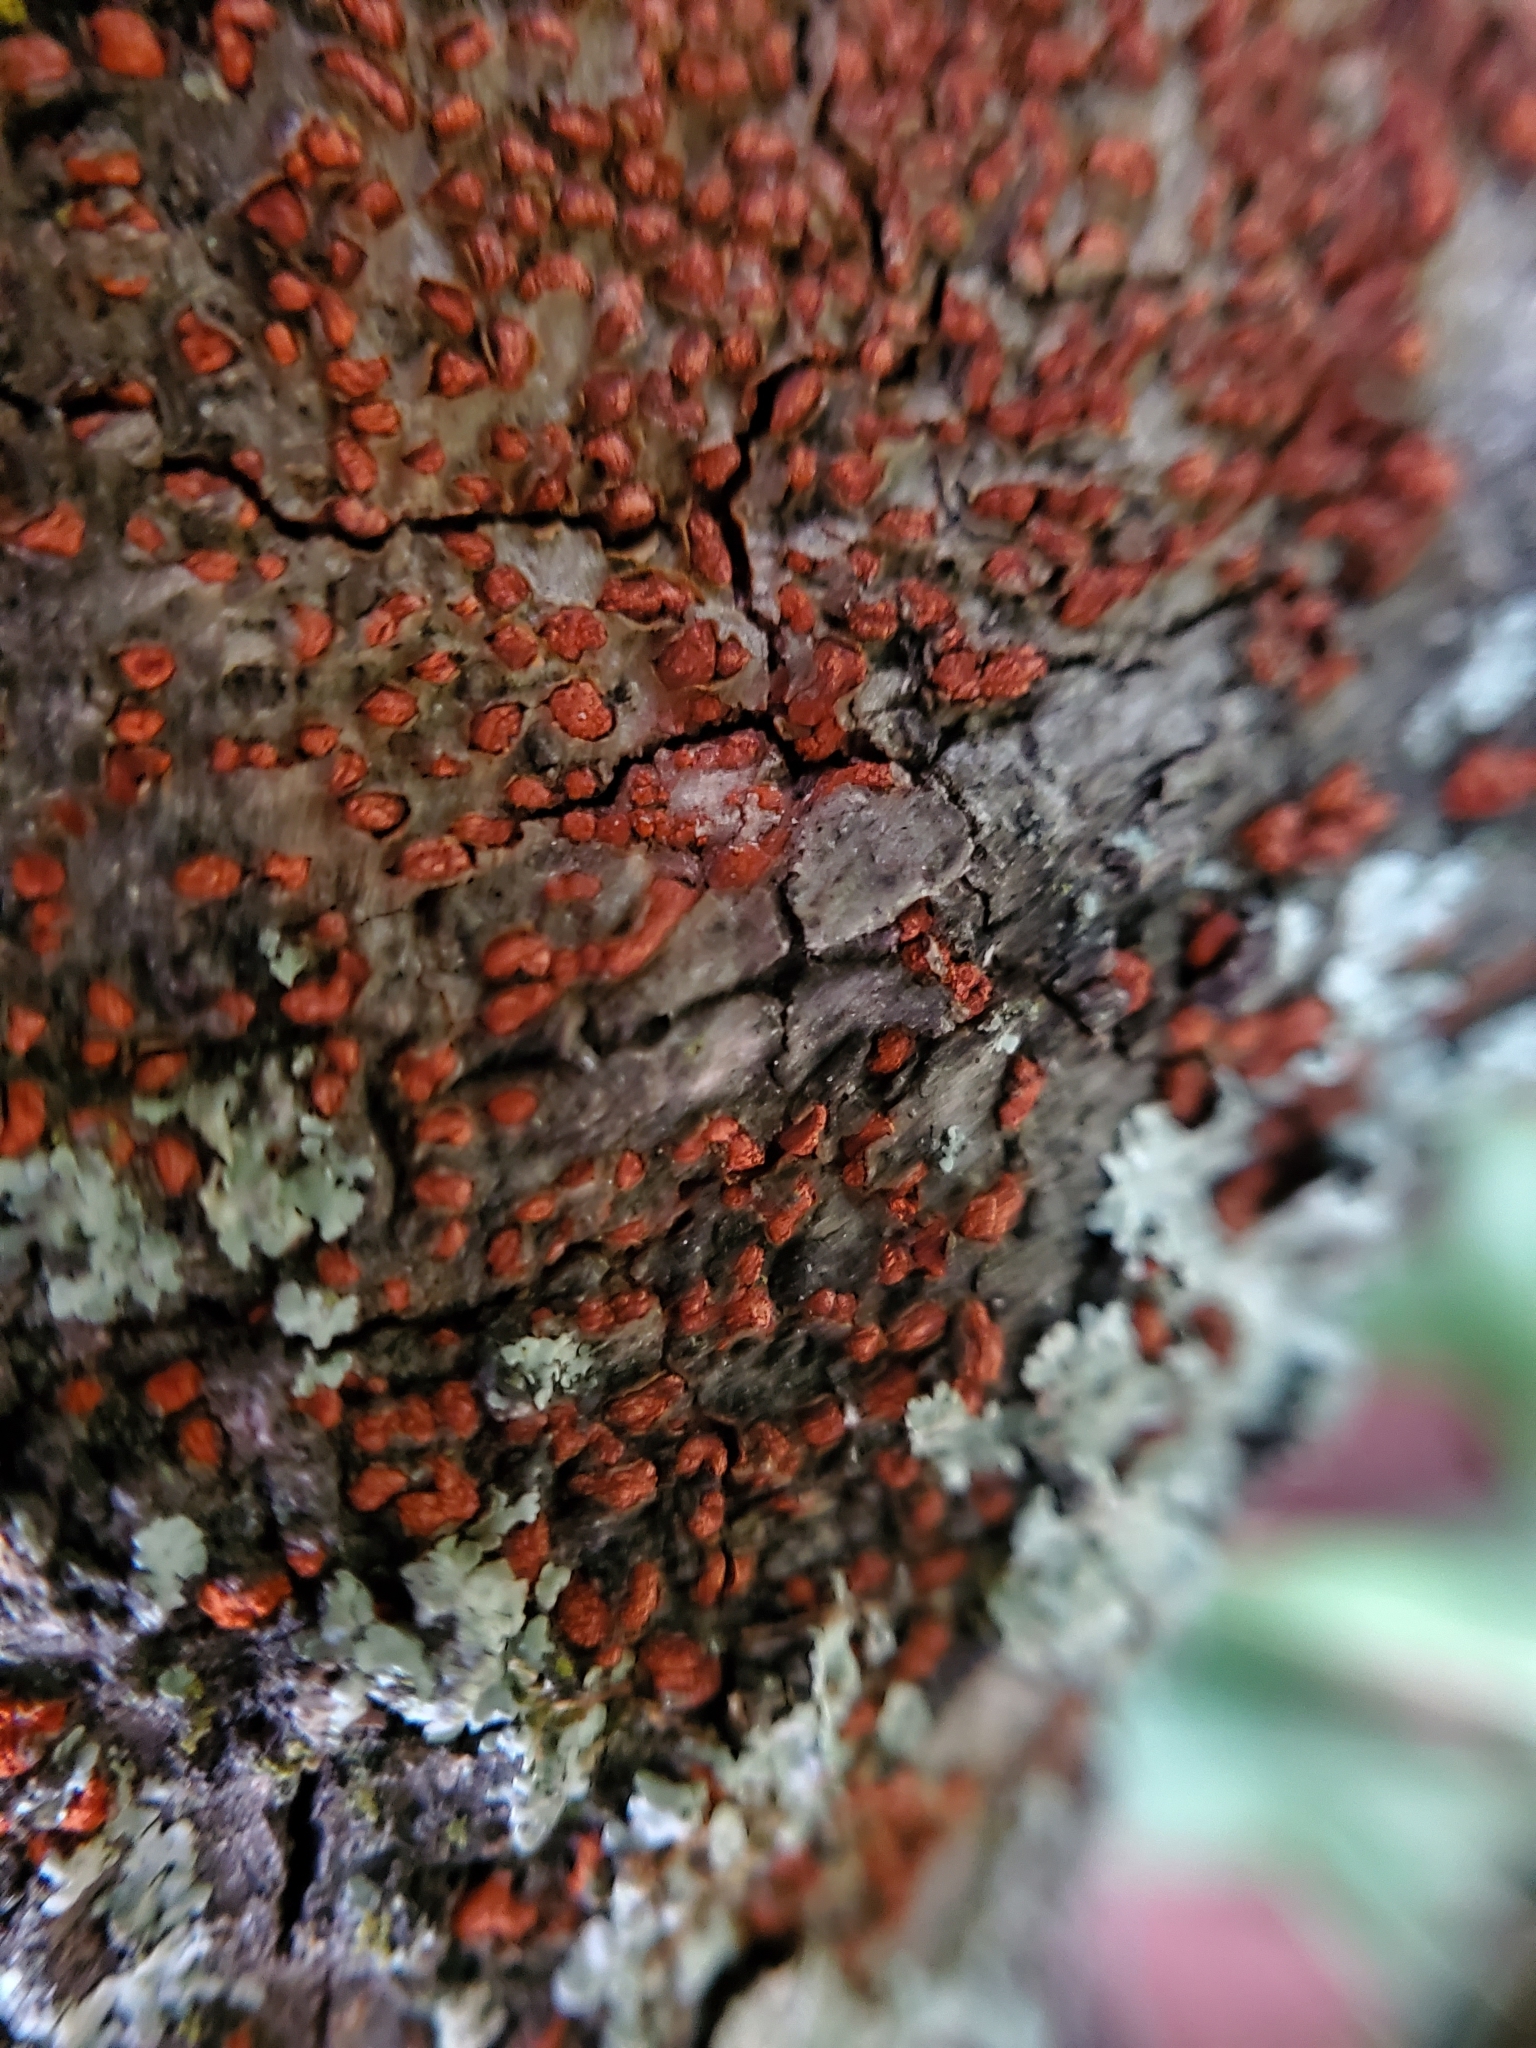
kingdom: Fungi
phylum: Ascomycota
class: Sordariomycetes
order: Diaporthales
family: Cryphonectriaceae
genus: Amphilogia
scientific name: Amphilogia gyrosa
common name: Orange hobnail canker
